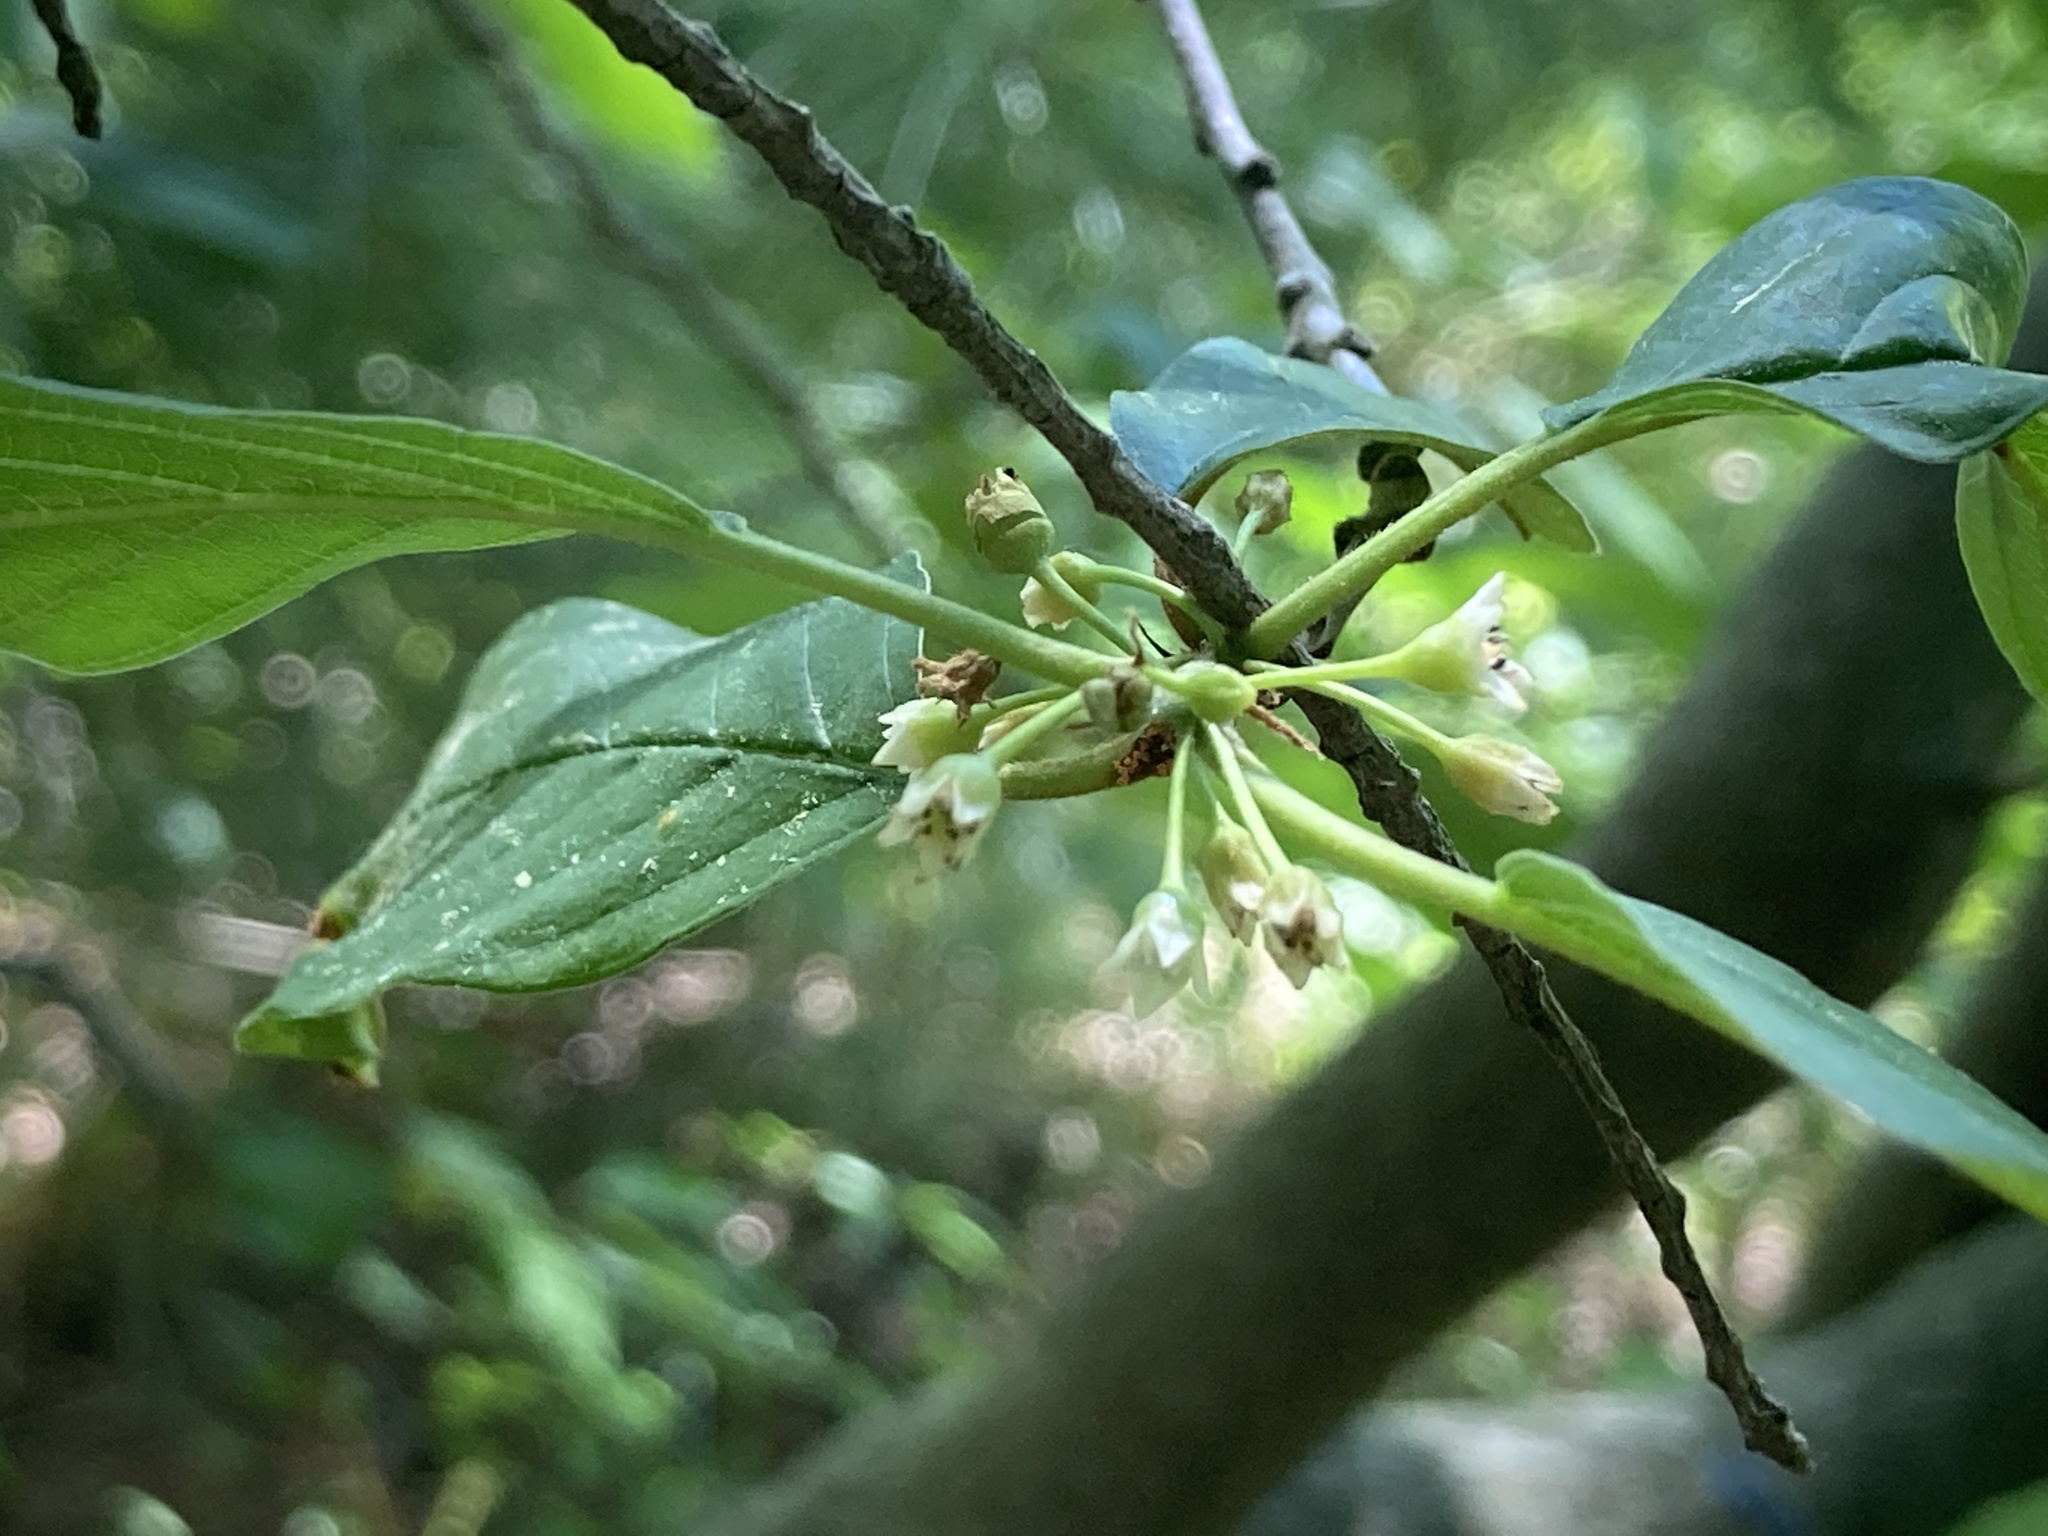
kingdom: Plantae
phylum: Tracheophyta
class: Magnoliopsida
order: Rosales
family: Rhamnaceae
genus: Frangula
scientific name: Frangula alnus
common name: Alder buckthorn
